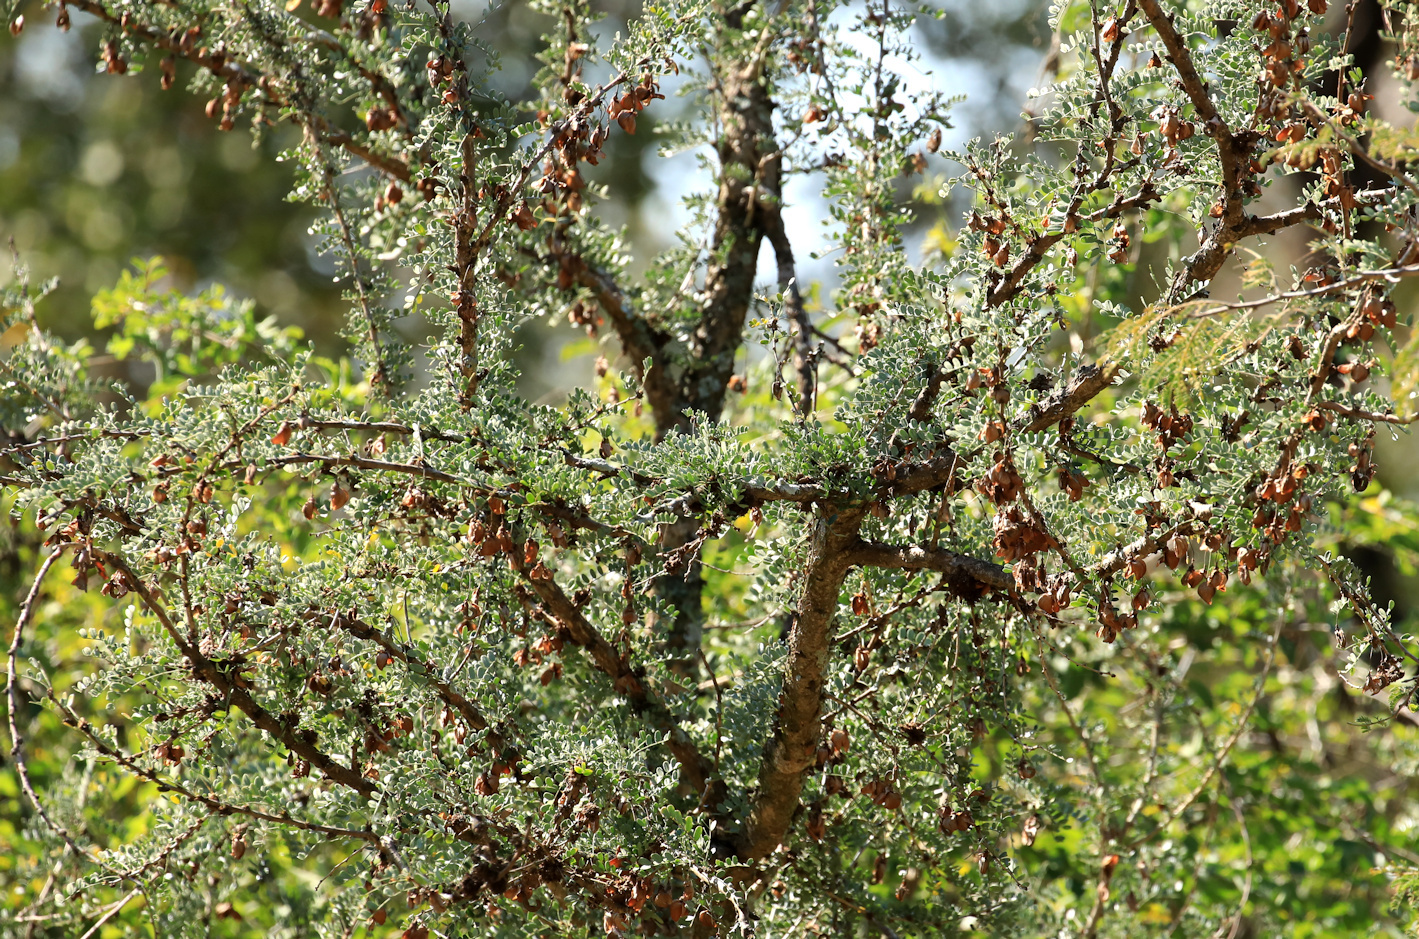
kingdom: Plantae
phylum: Tracheophyta
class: Magnoliopsida
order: Fabales
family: Fabaceae
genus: Ormocarpum
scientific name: Ormocarpum kirkii
